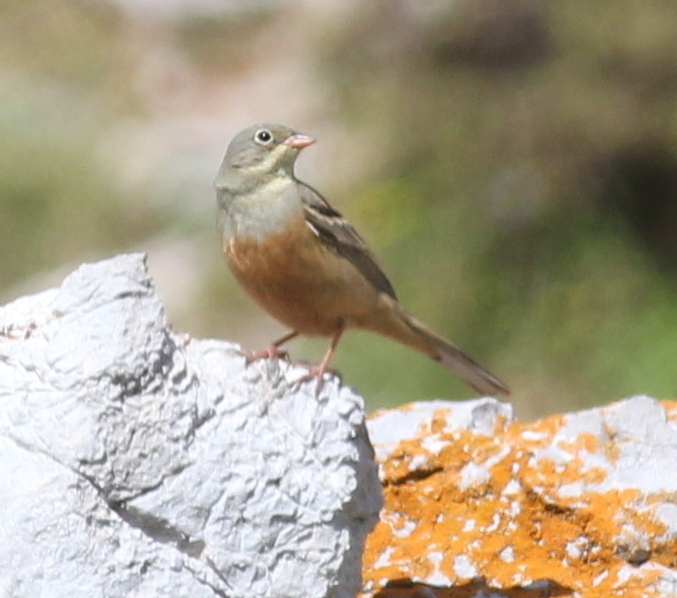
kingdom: Animalia
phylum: Chordata
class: Aves
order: Passeriformes
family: Emberizidae
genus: Emberiza
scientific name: Emberiza hortulana
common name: Ortolan bunting
